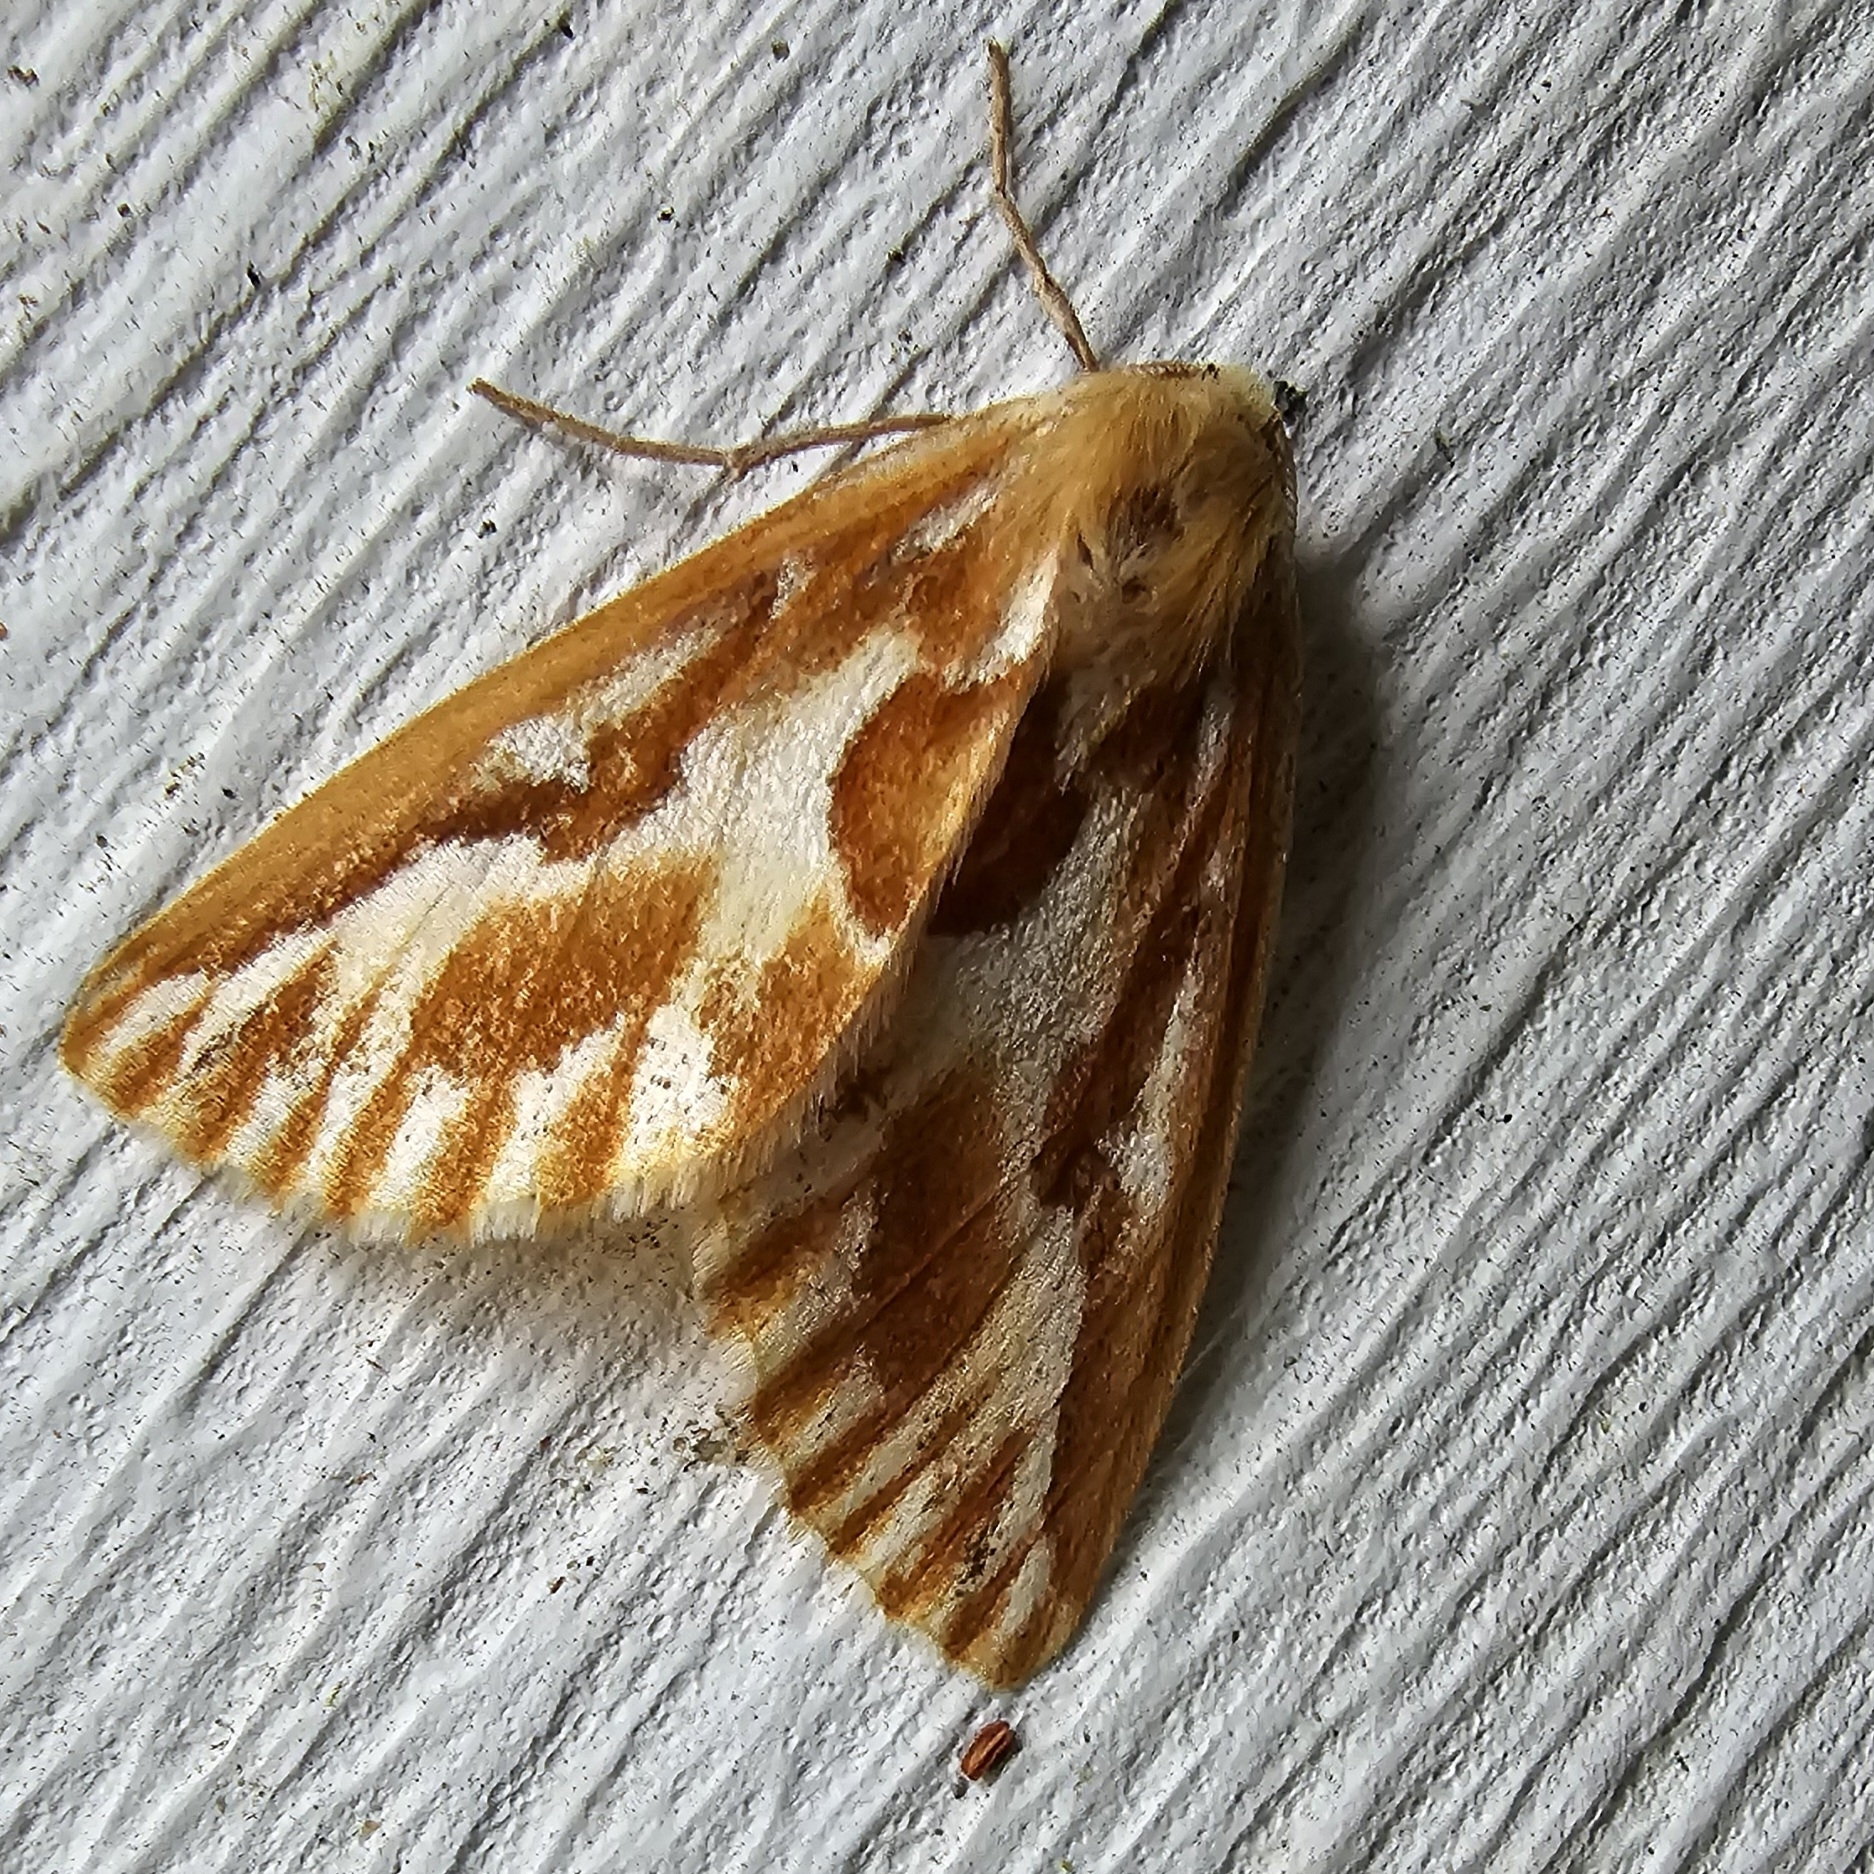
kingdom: Animalia
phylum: Arthropoda
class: Insecta
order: Lepidoptera
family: Geometridae
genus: Caripeta
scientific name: Caripeta piniata
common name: Northern pine looper moth
